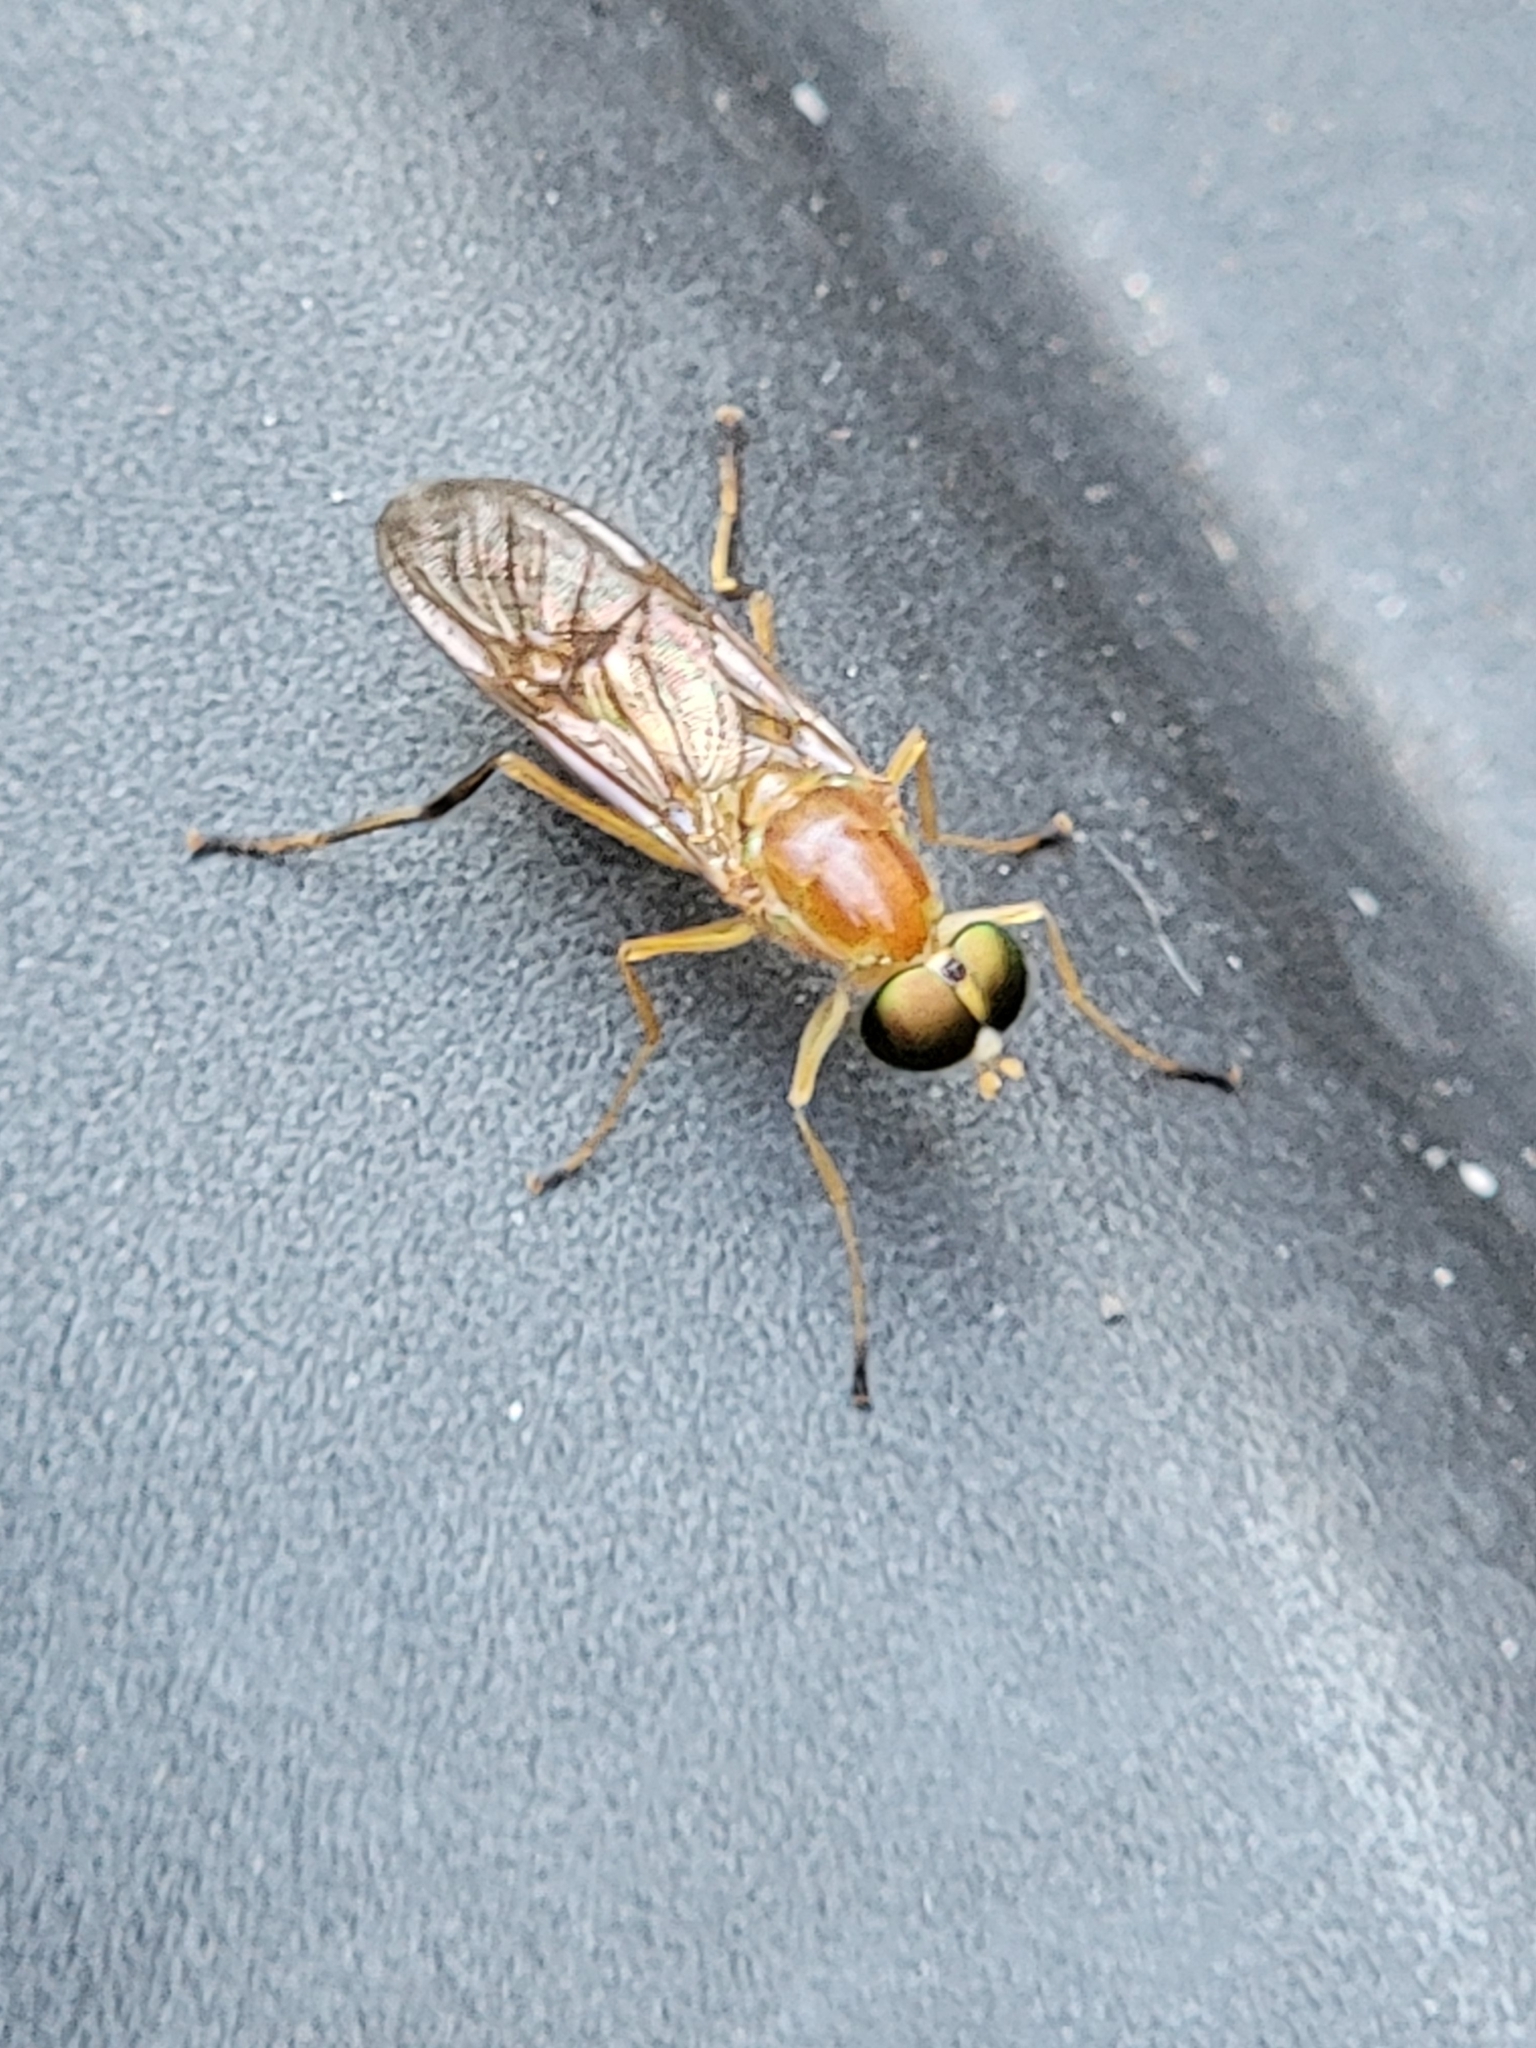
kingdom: Animalia
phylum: Arthropoda
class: Insecta
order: Diptera
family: Stratiomyidae
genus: Ptecticus
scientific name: Ptecticus trivittatus
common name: Compost fly
